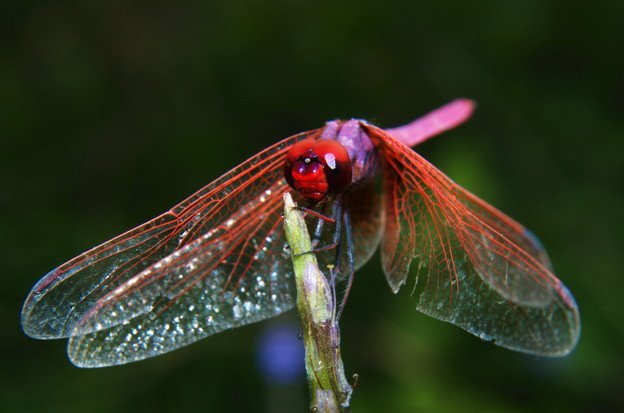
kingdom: Animalia
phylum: Arthropoda
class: Insecta
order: Odonata
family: Libellulidae
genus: Trithemis
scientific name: Trithemis aurora
